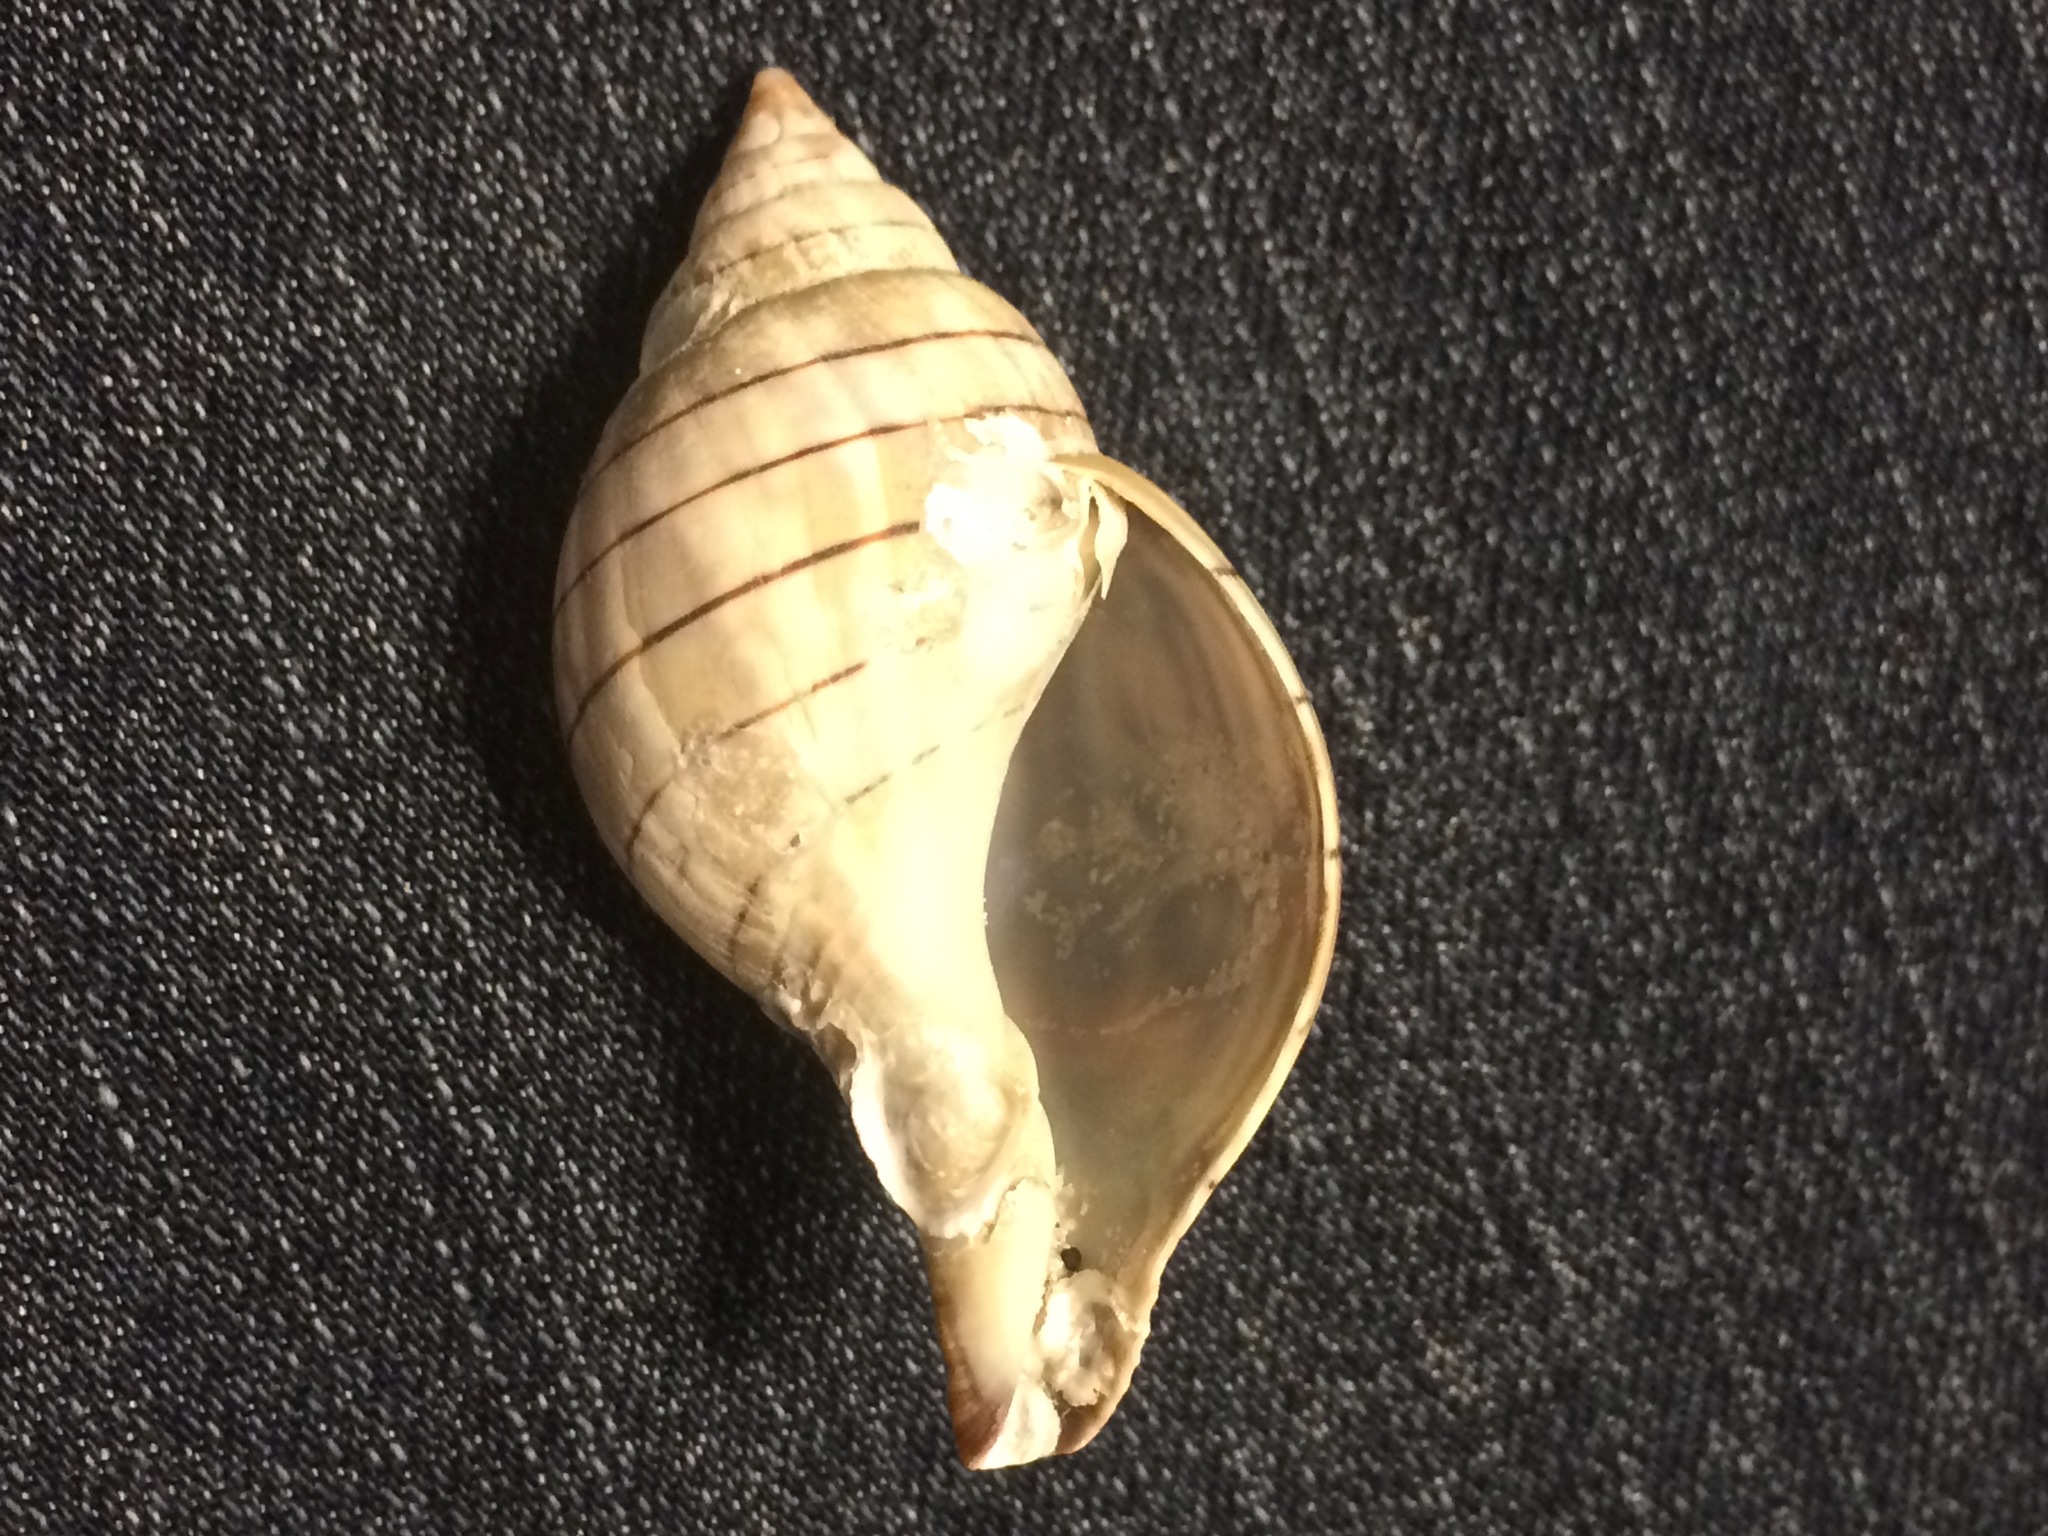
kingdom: Animalia
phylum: Mollusca
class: Gastropoda
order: Neogastropoda
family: Fasciolariidae
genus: Cinctura
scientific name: Cinctura hunteria
